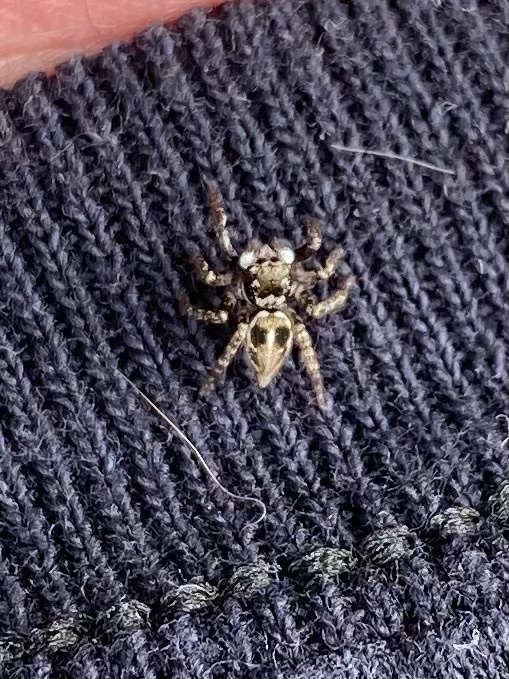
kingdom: Animalia
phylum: Arthropoda
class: Arachnida
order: Araneae
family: Salticidae
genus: Anasaitis
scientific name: Anasaitis canosa
